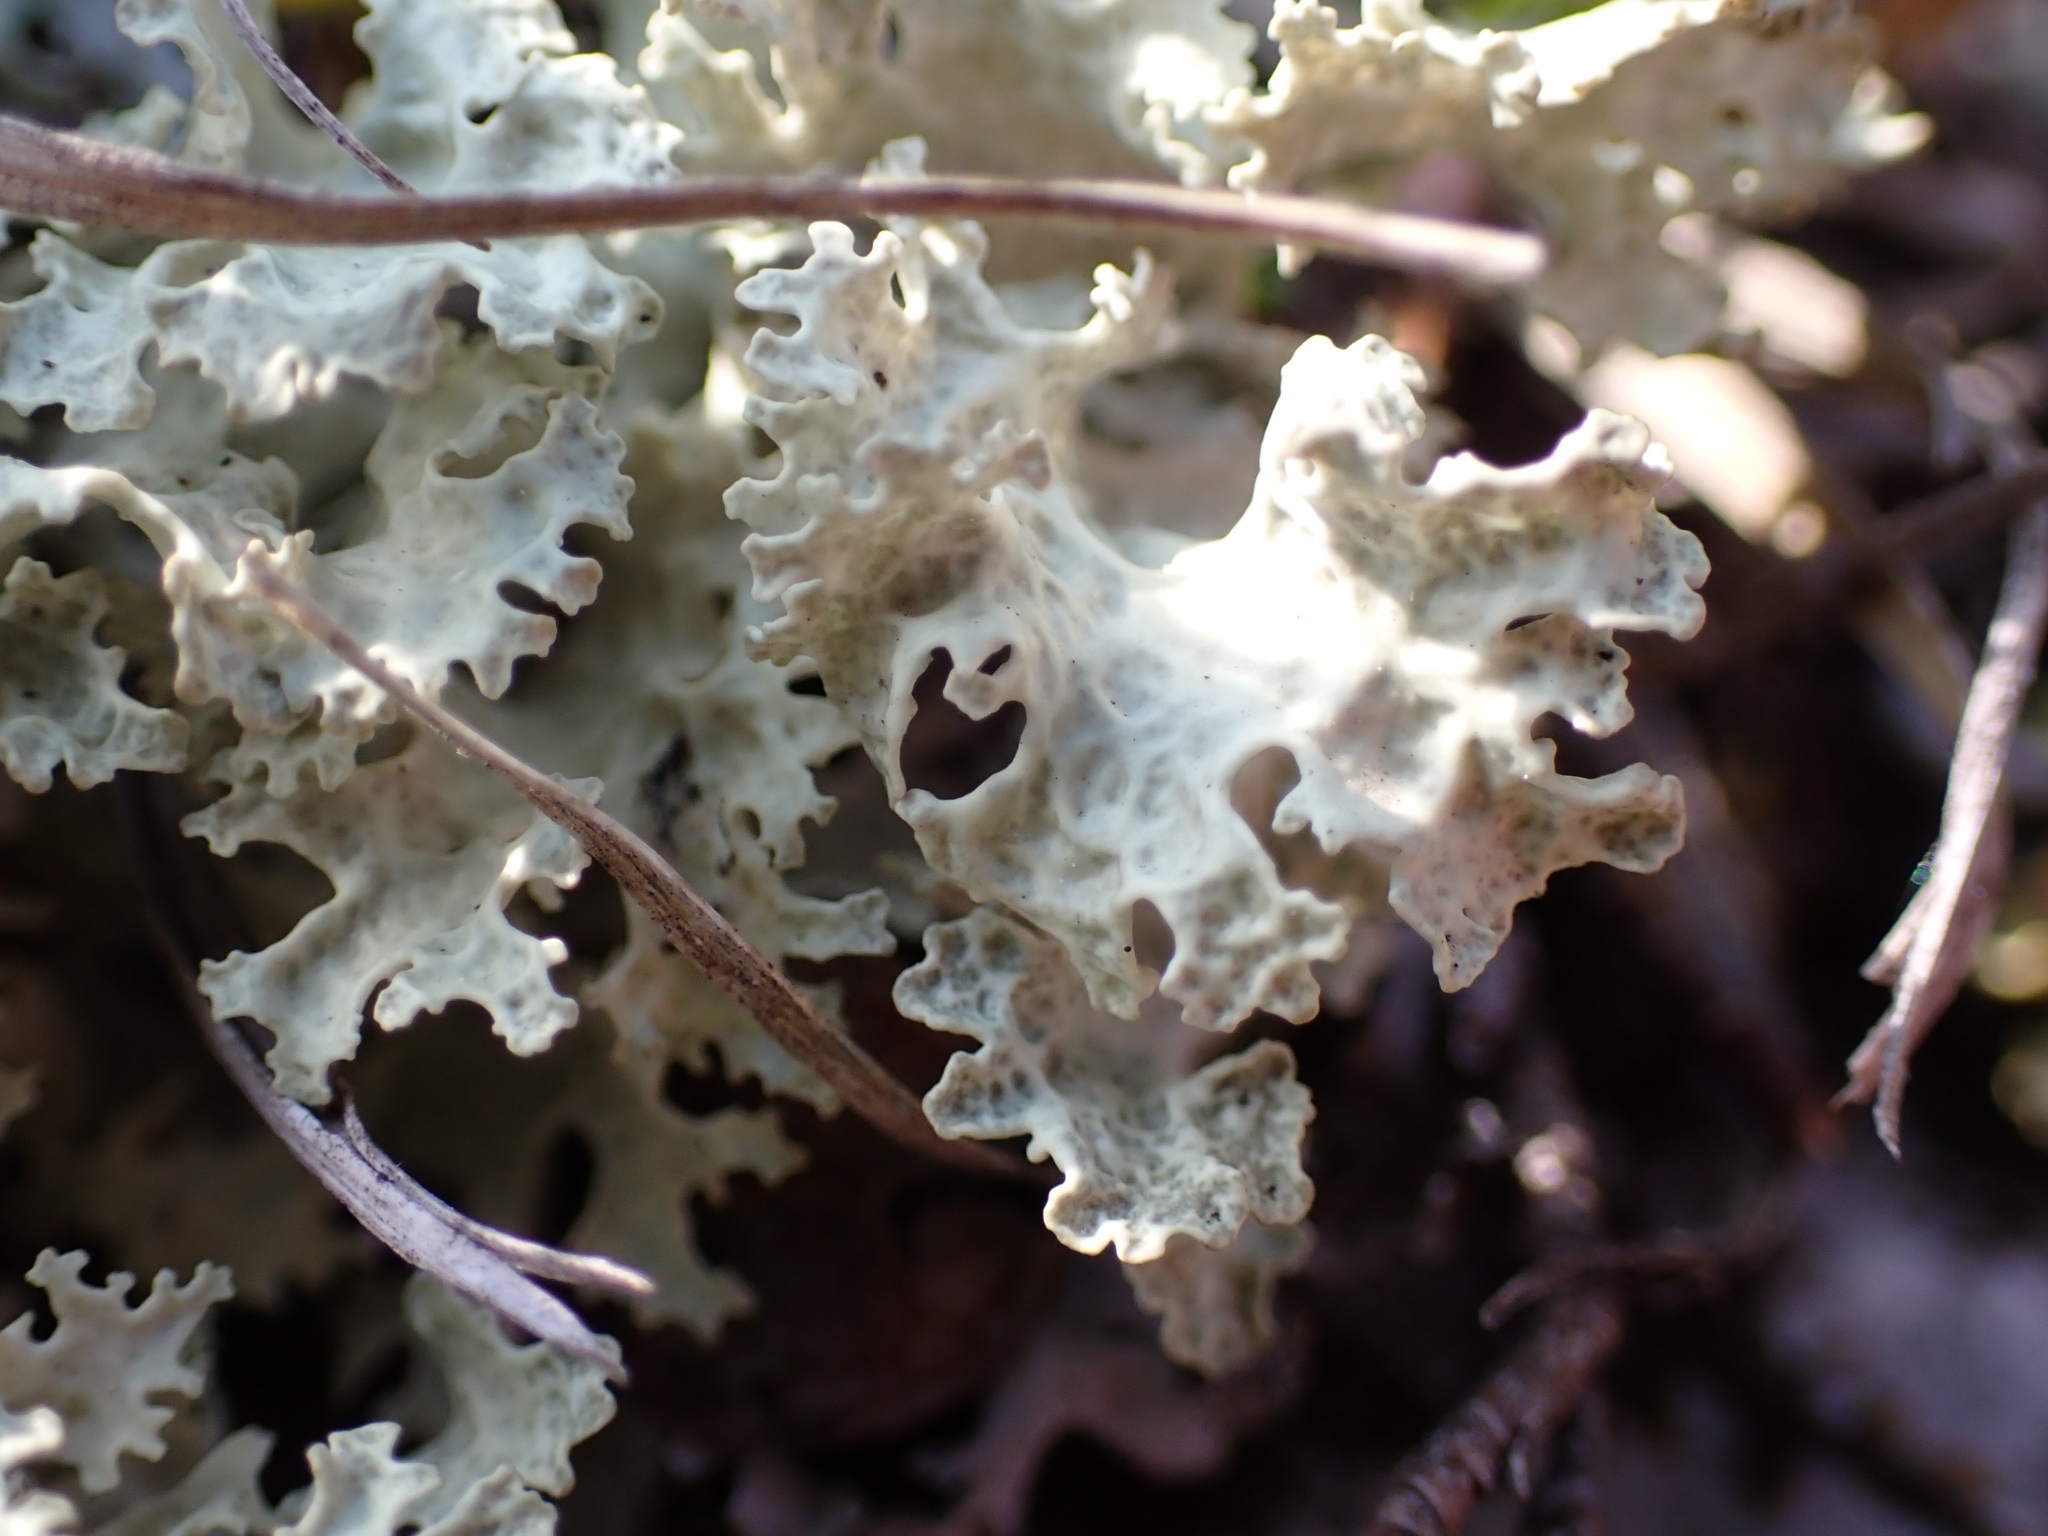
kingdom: Fungi
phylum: Ascomycota
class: Lecanoromycetes
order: Lecanorales
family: Parmeliaceae
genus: Nephromopsis
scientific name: Nephromopsis nivalis
